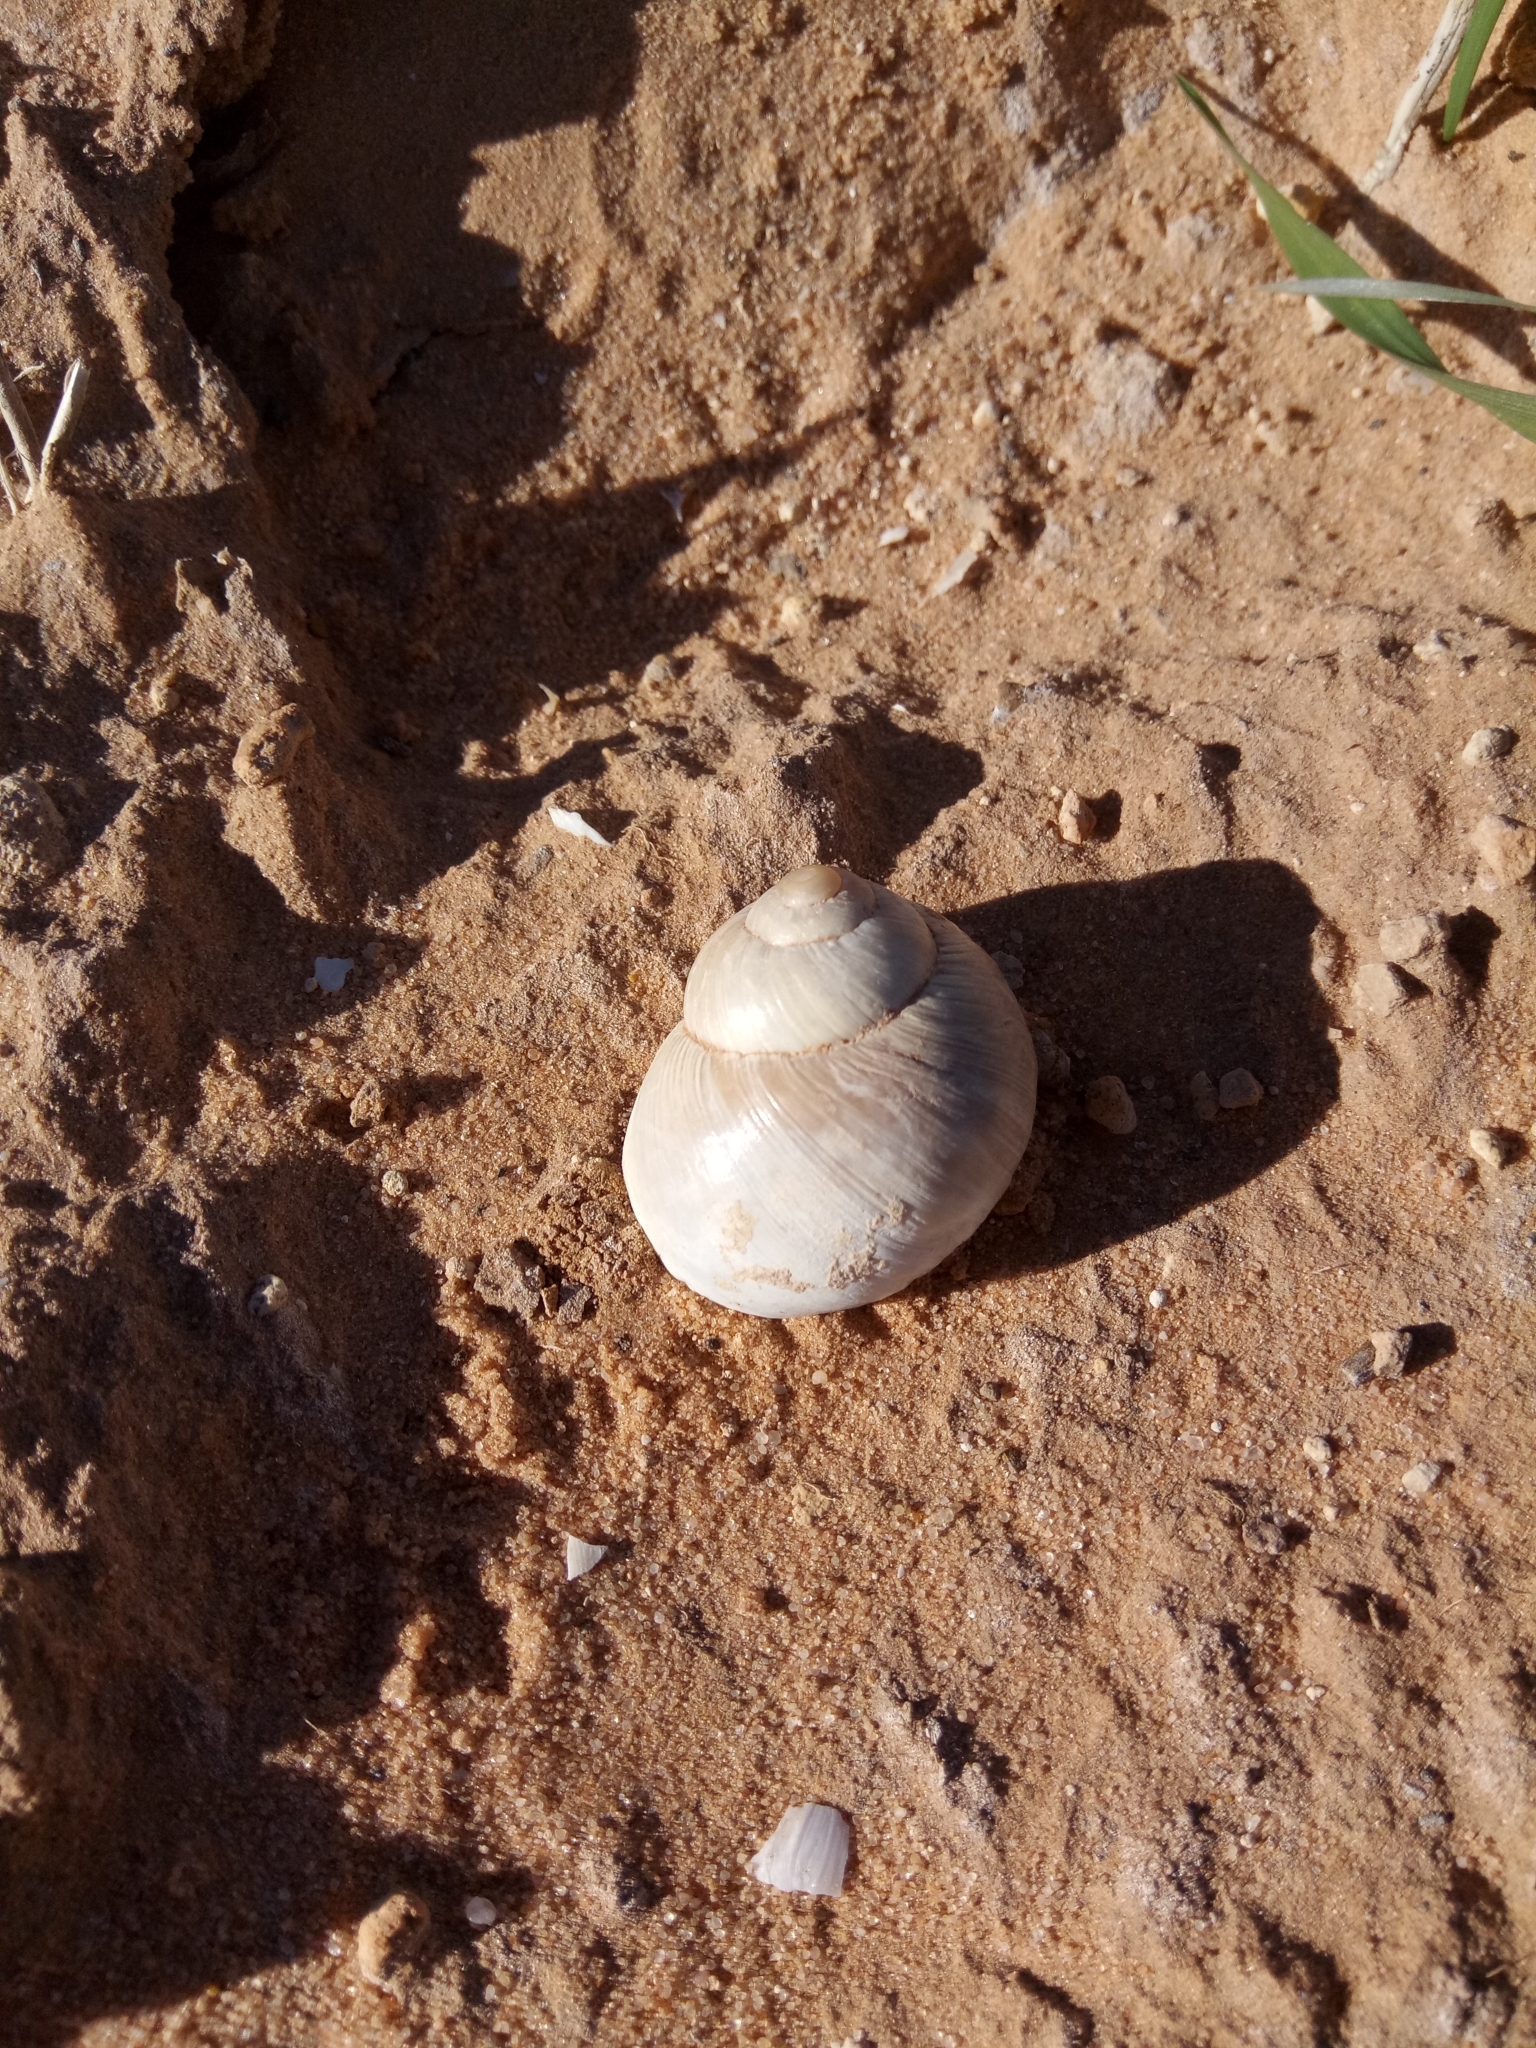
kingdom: Animalia
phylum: Mollusca
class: Gastropoda
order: Stylommatophora
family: Helicidae
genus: Helix
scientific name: Helix melanostoma
